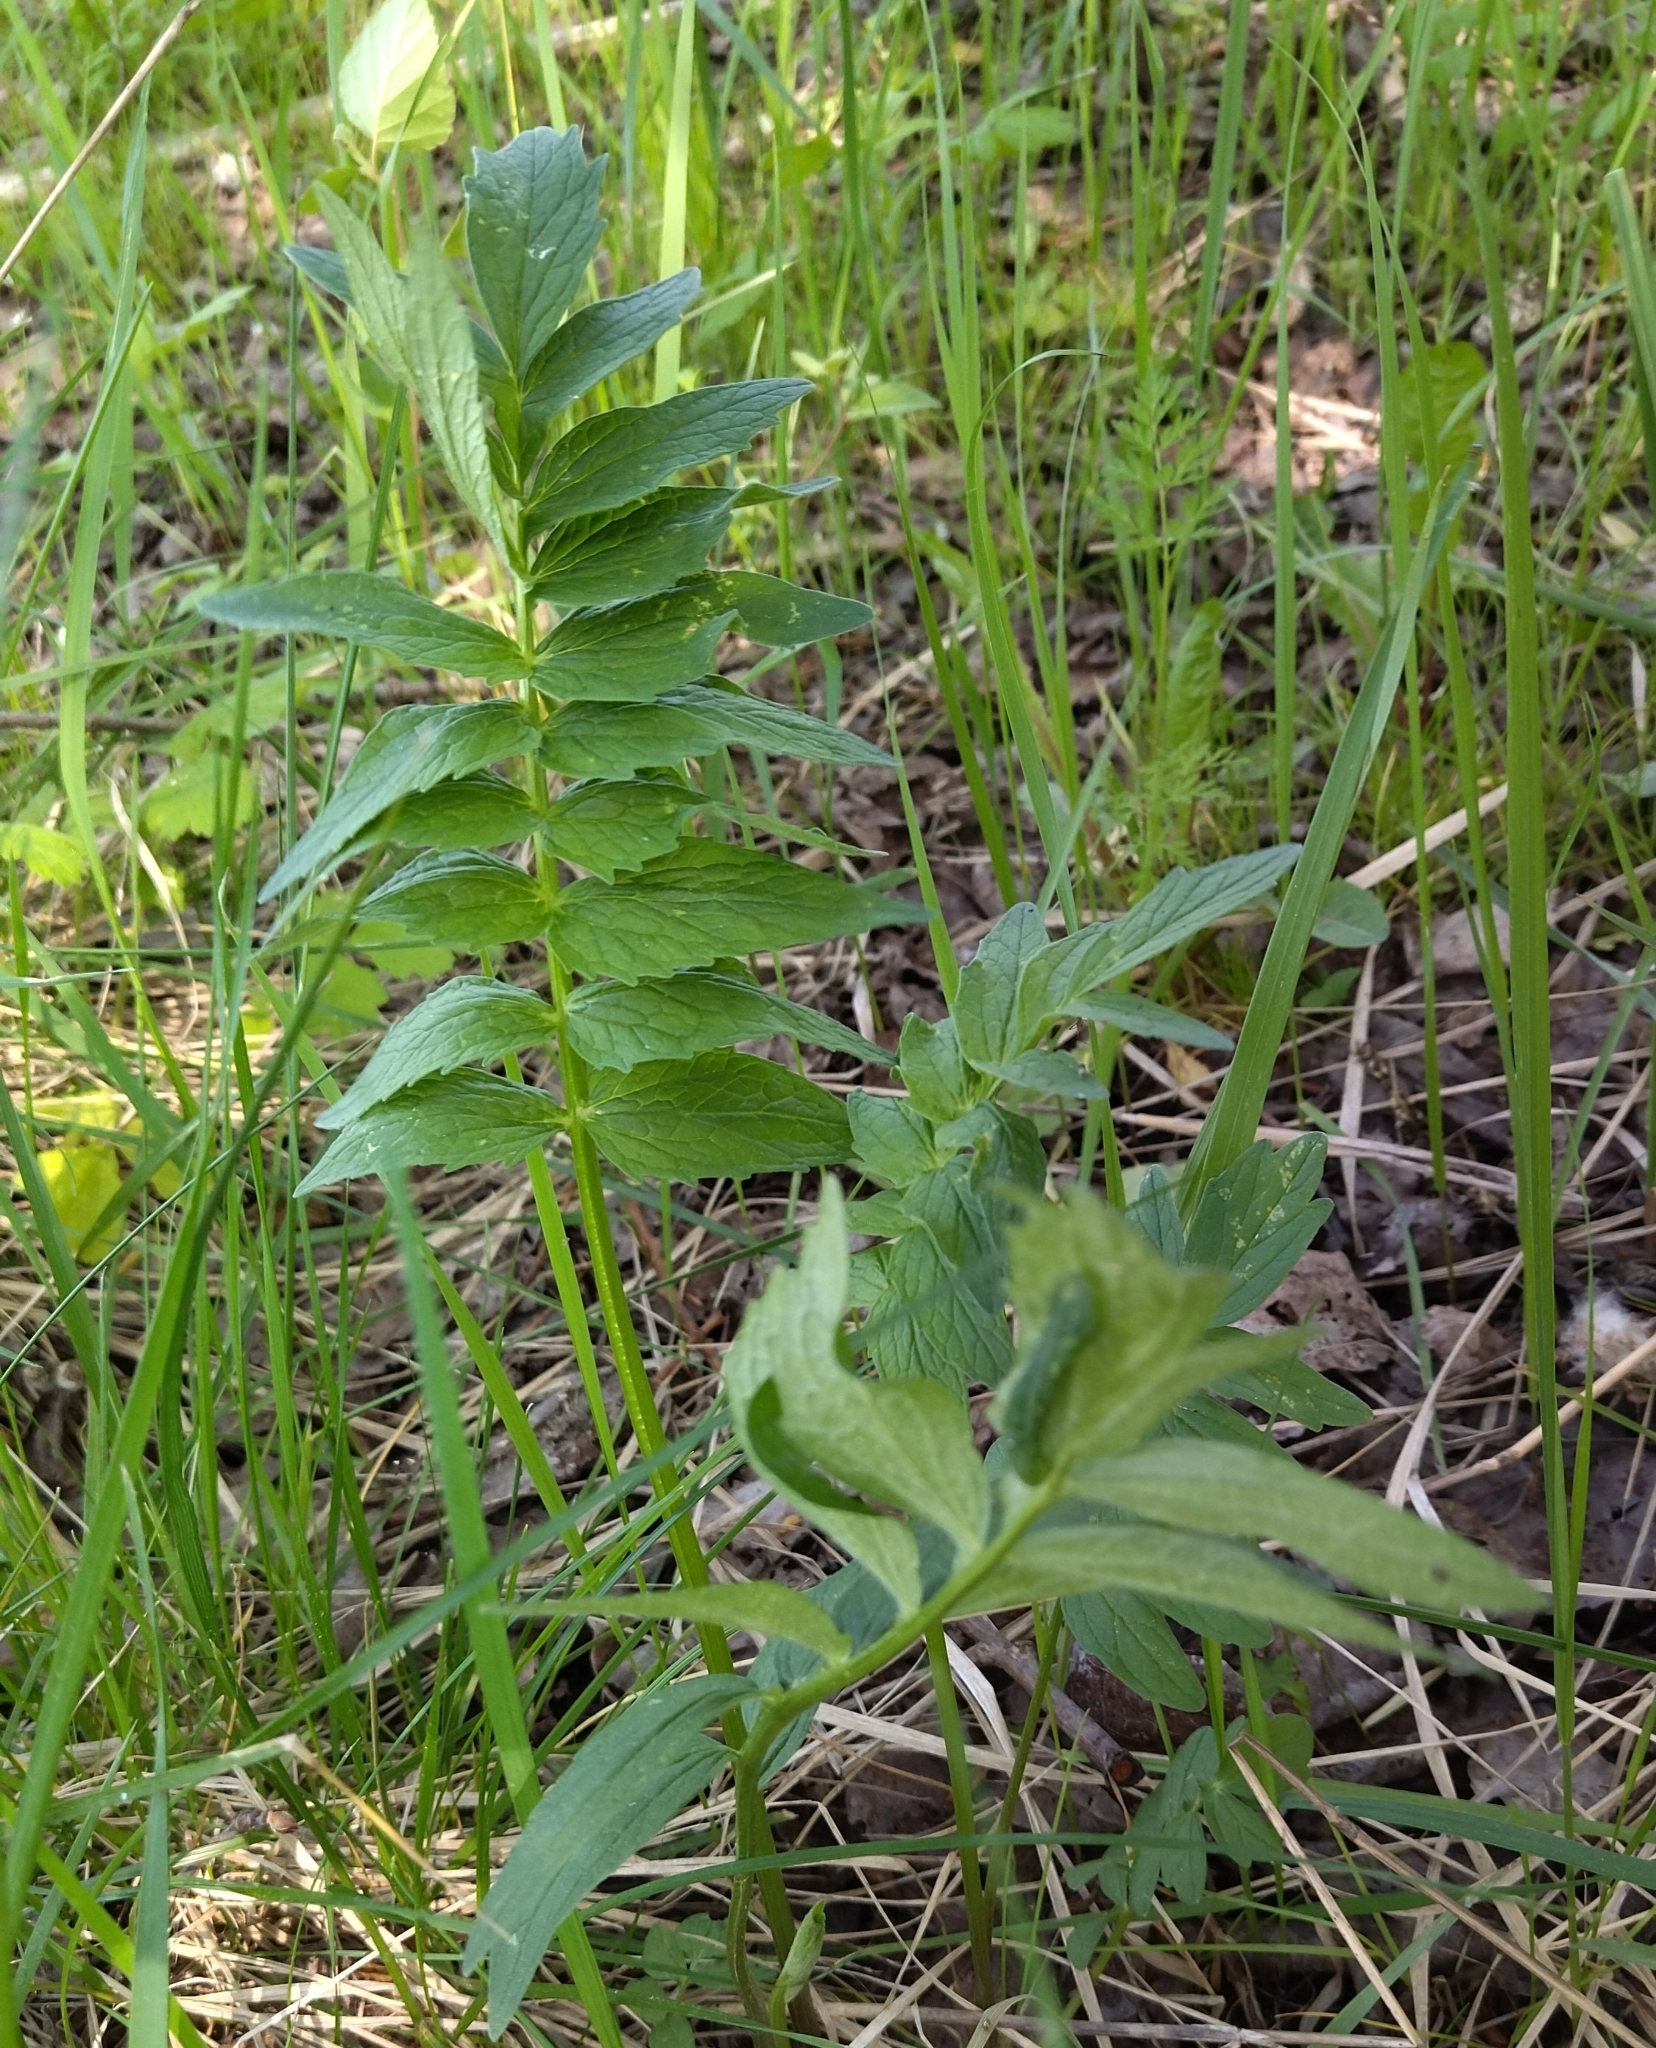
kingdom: Plantae
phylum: Tracheophyta
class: Magnoliopsida
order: Dipsacales
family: Caprifoliaceae
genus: Valeriana
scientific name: Valeriana officinalis
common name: Common valerian
